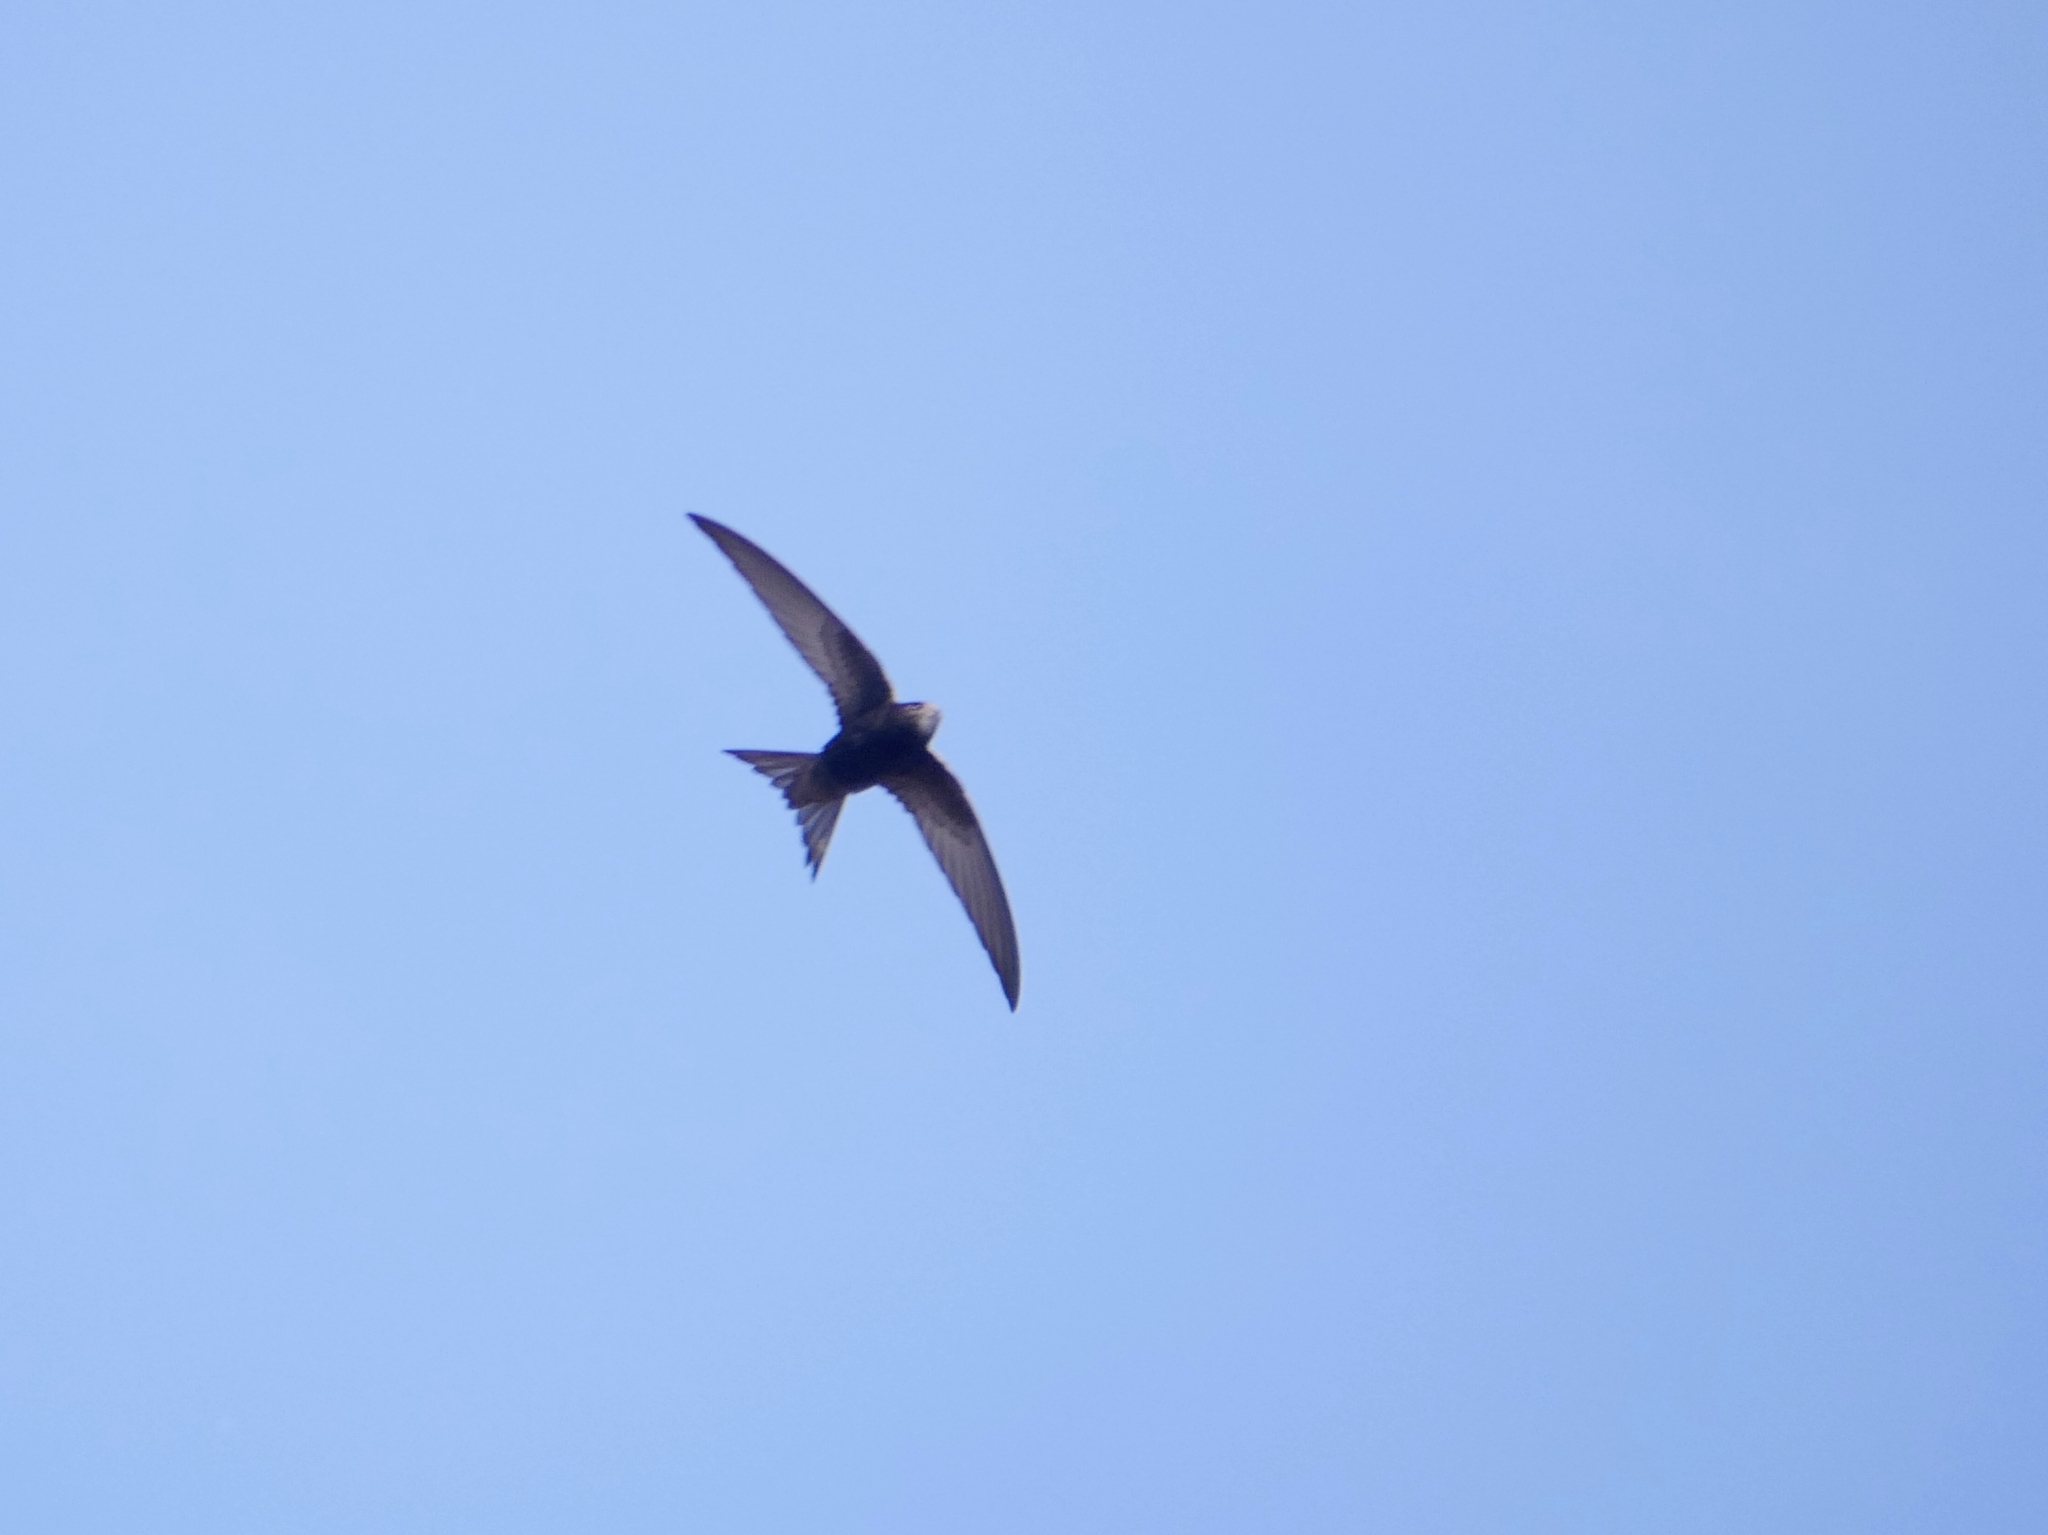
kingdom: Animalia
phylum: Chordata
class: Aves
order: Apodiformes
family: Apodidae
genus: Apus
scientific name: Apus apus
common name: Common swift
